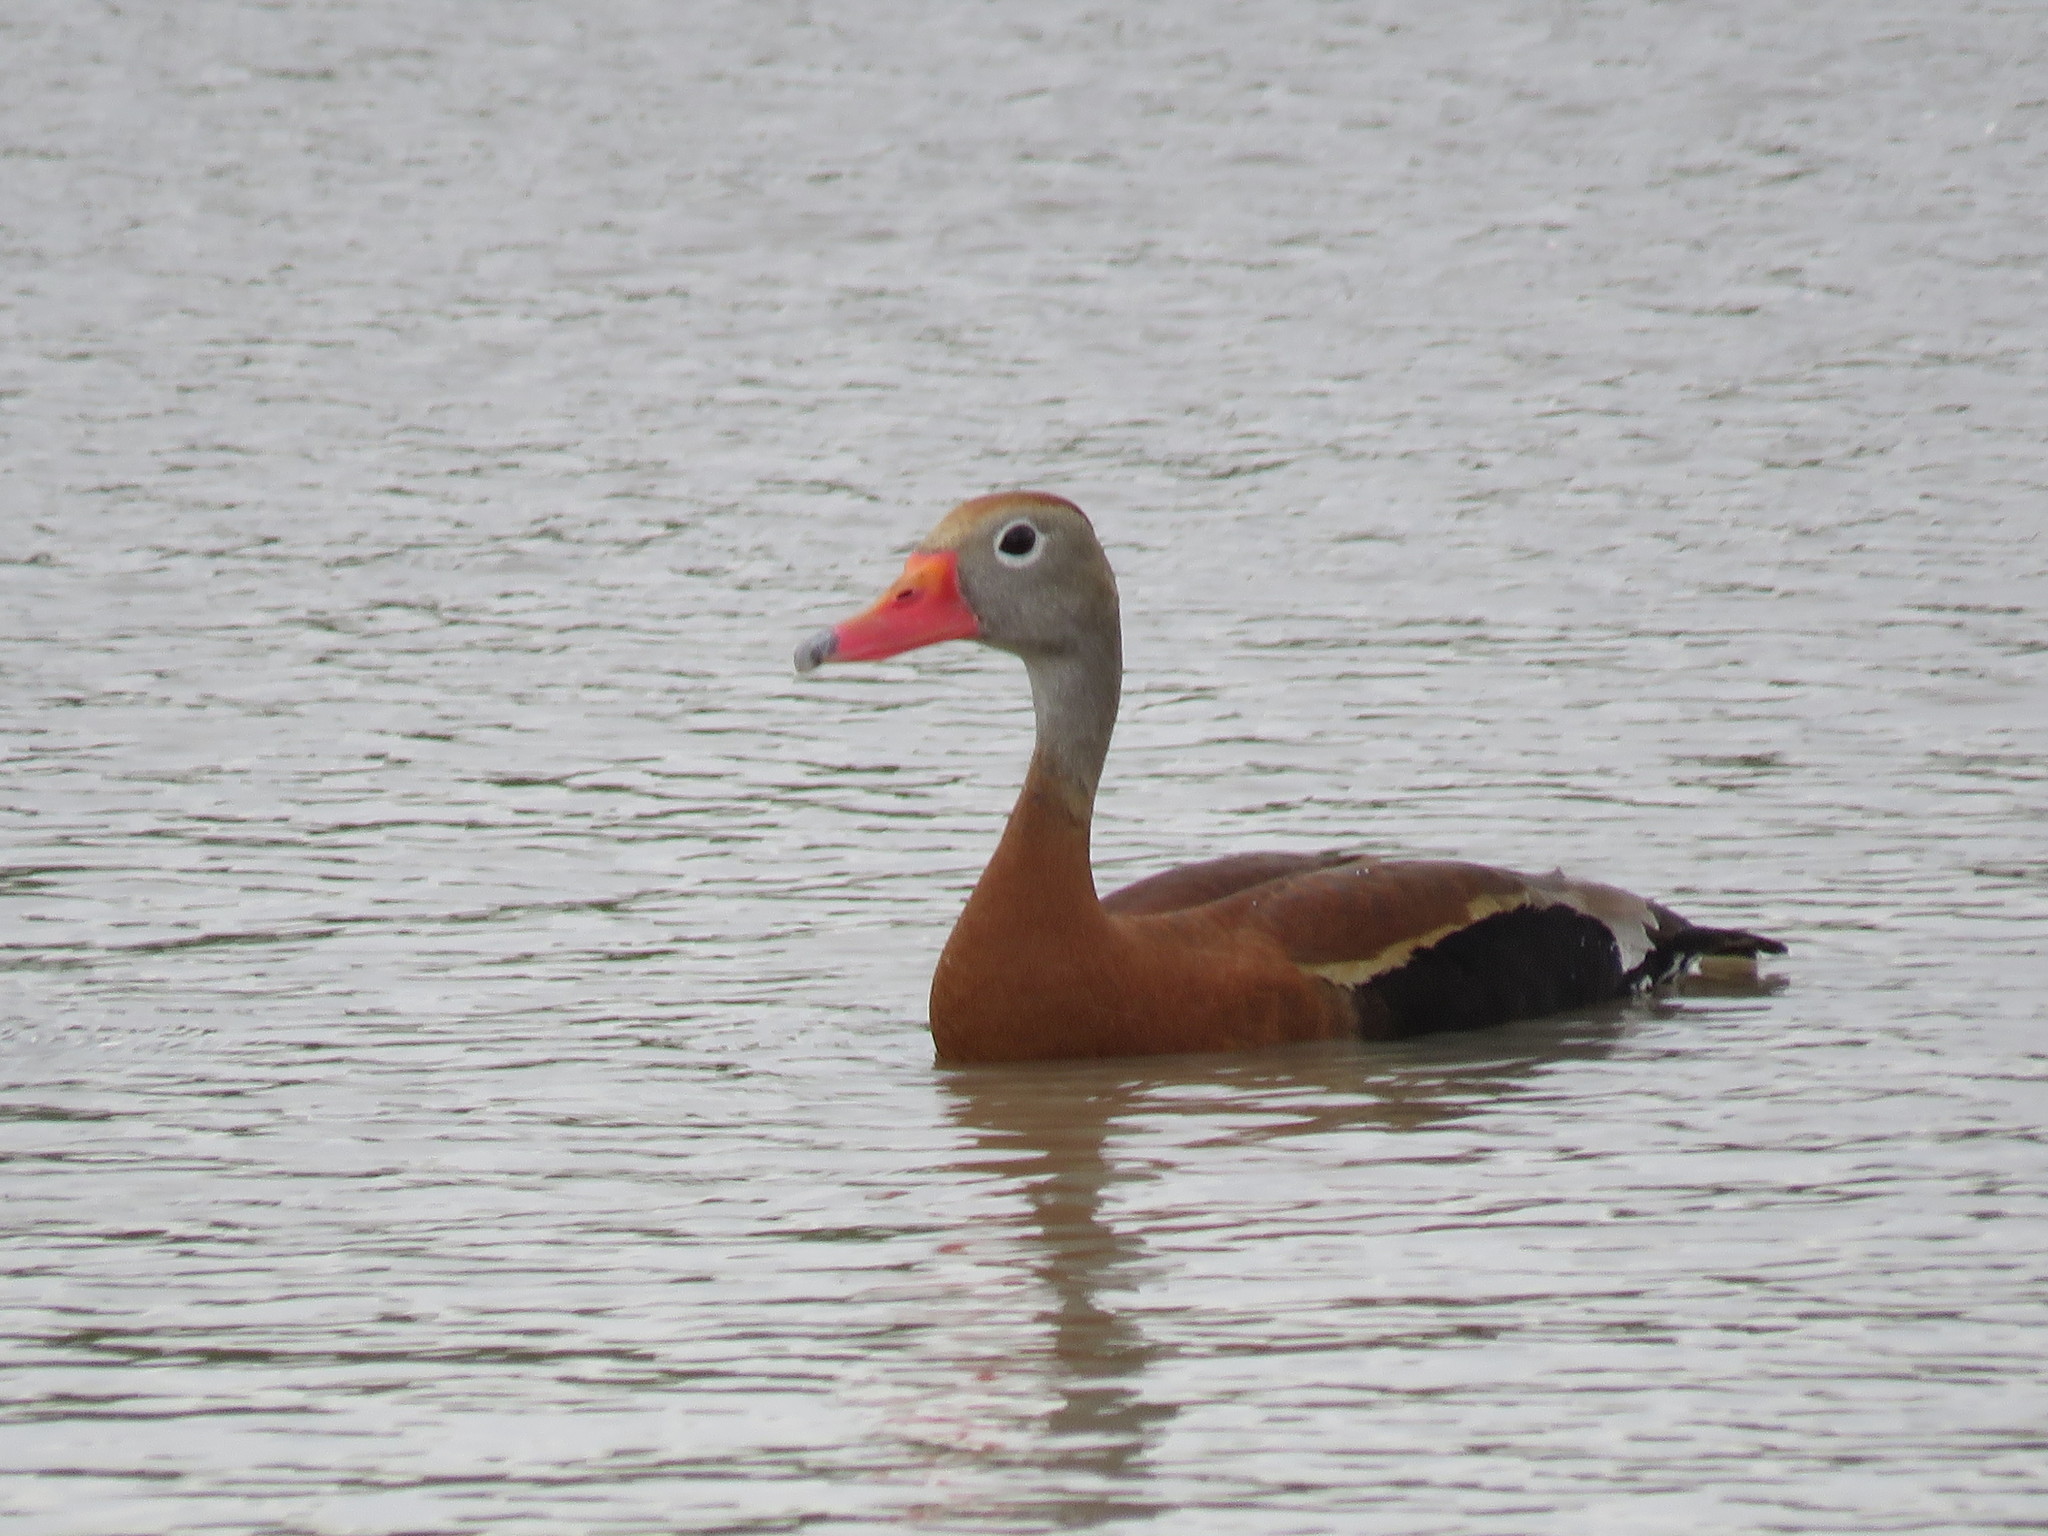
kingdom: Animalia
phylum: Chordata
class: Aves
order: Anseriformes
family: Anatidae
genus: Dendrocygna
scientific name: Dendrocygna autumnalis
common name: Black-bellied whistling duck
